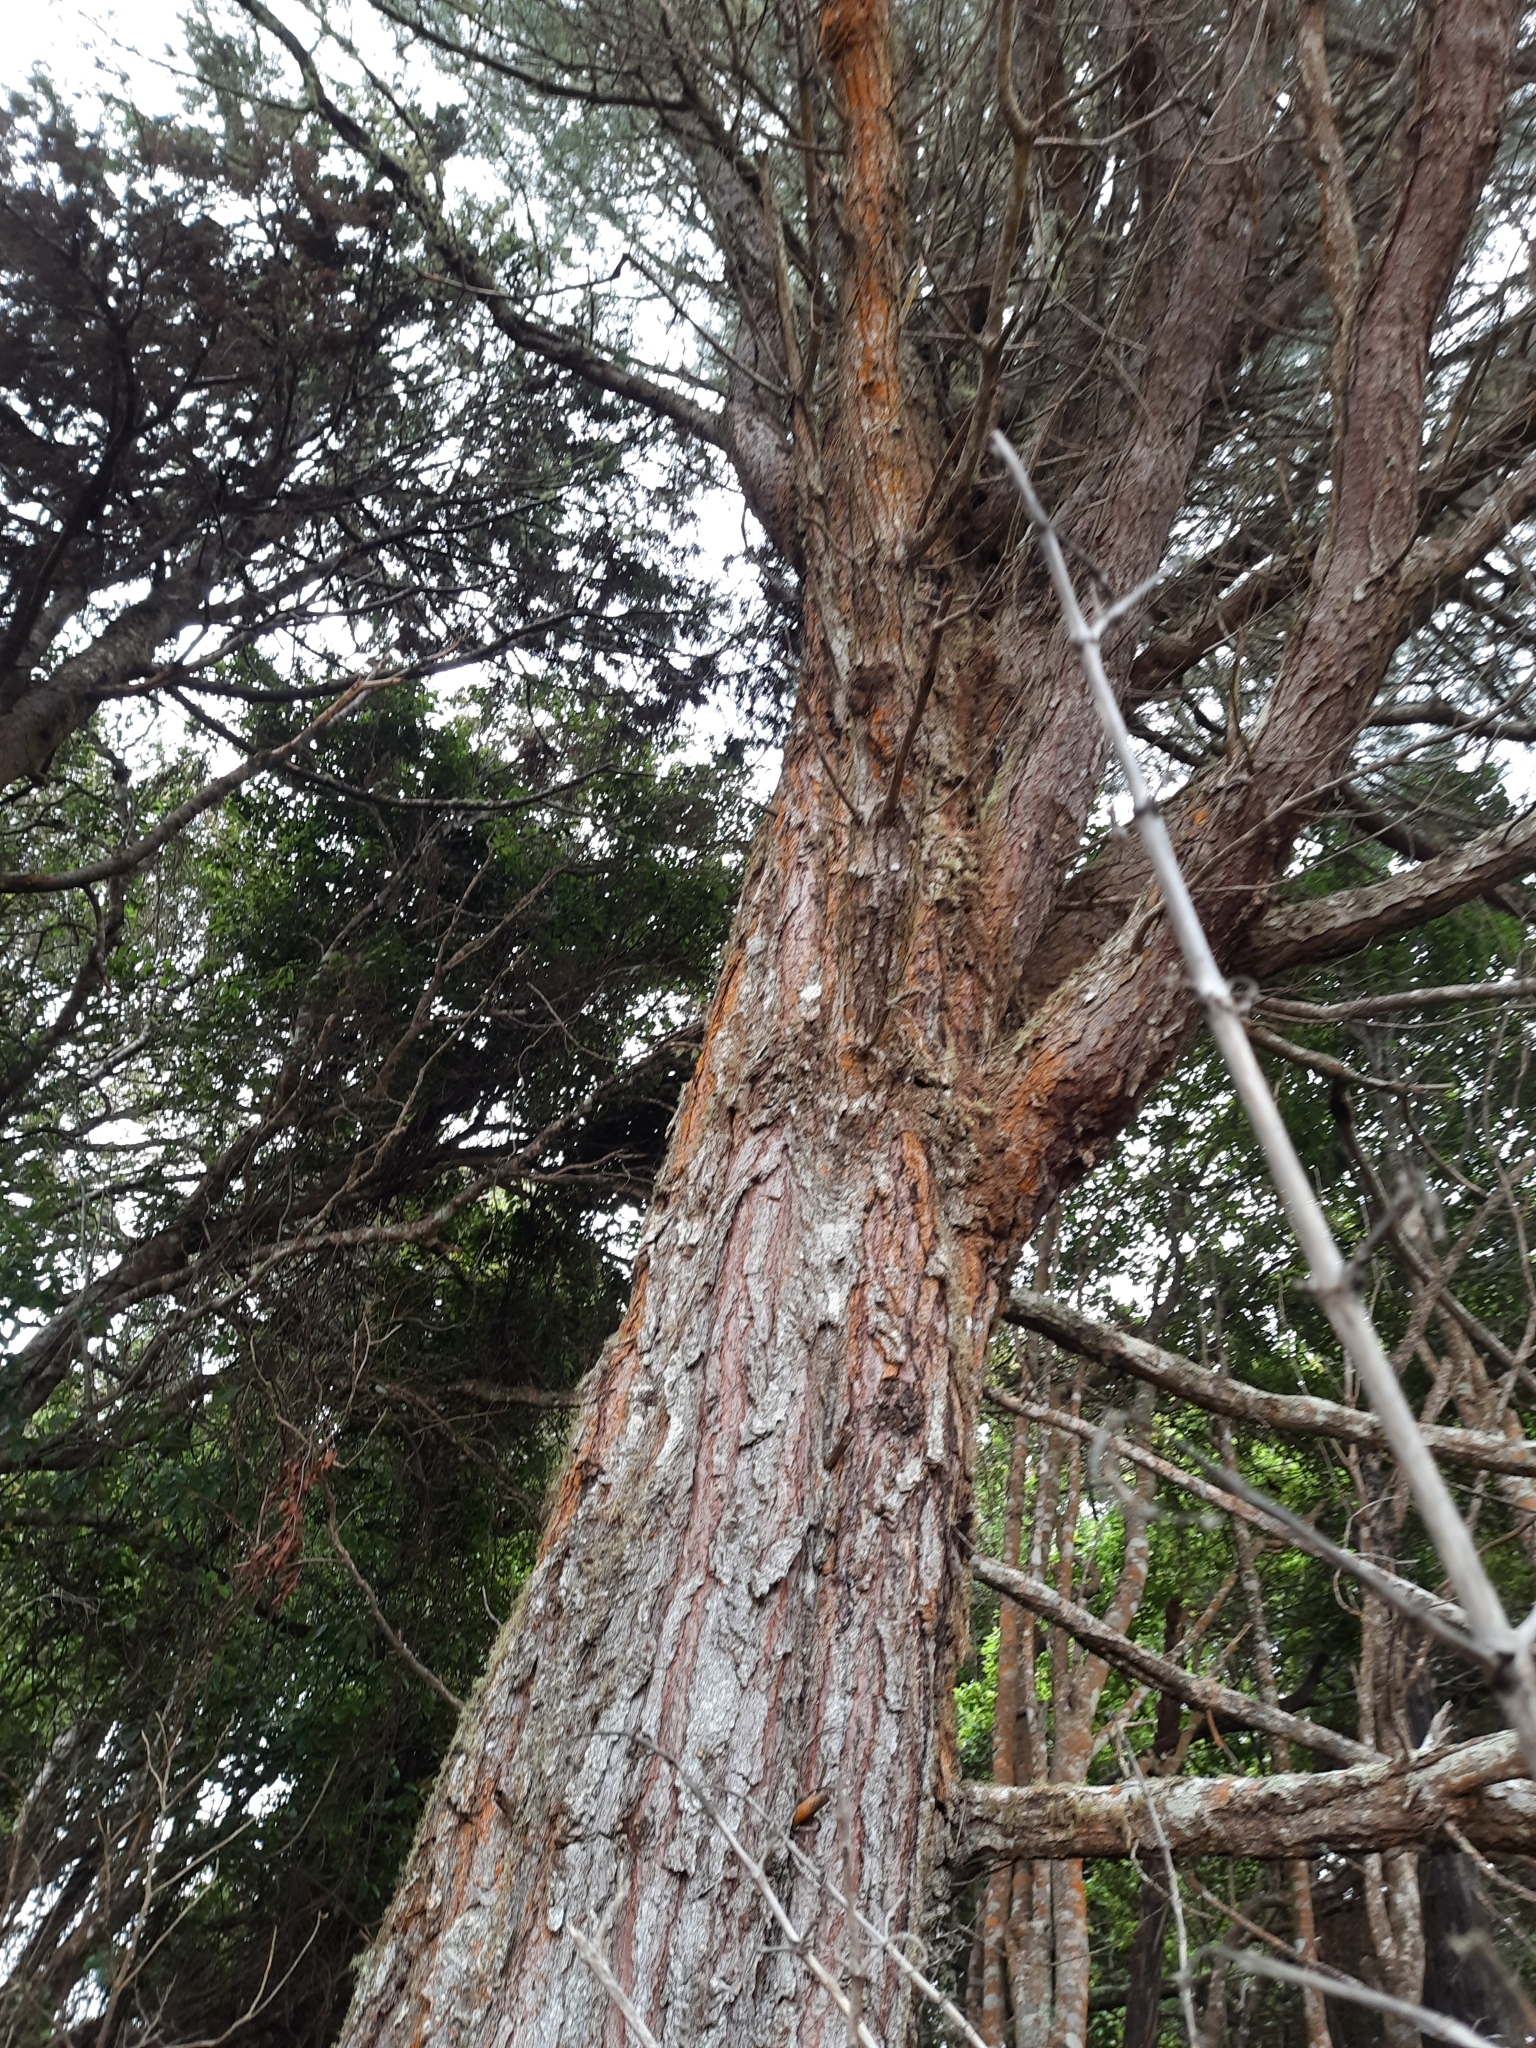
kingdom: Fungi
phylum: Basidiomycota
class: Agaricomycetes
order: Agaricales
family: Amanitaceae
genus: Amanita
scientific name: Amanita muscaria
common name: Fly agaric
